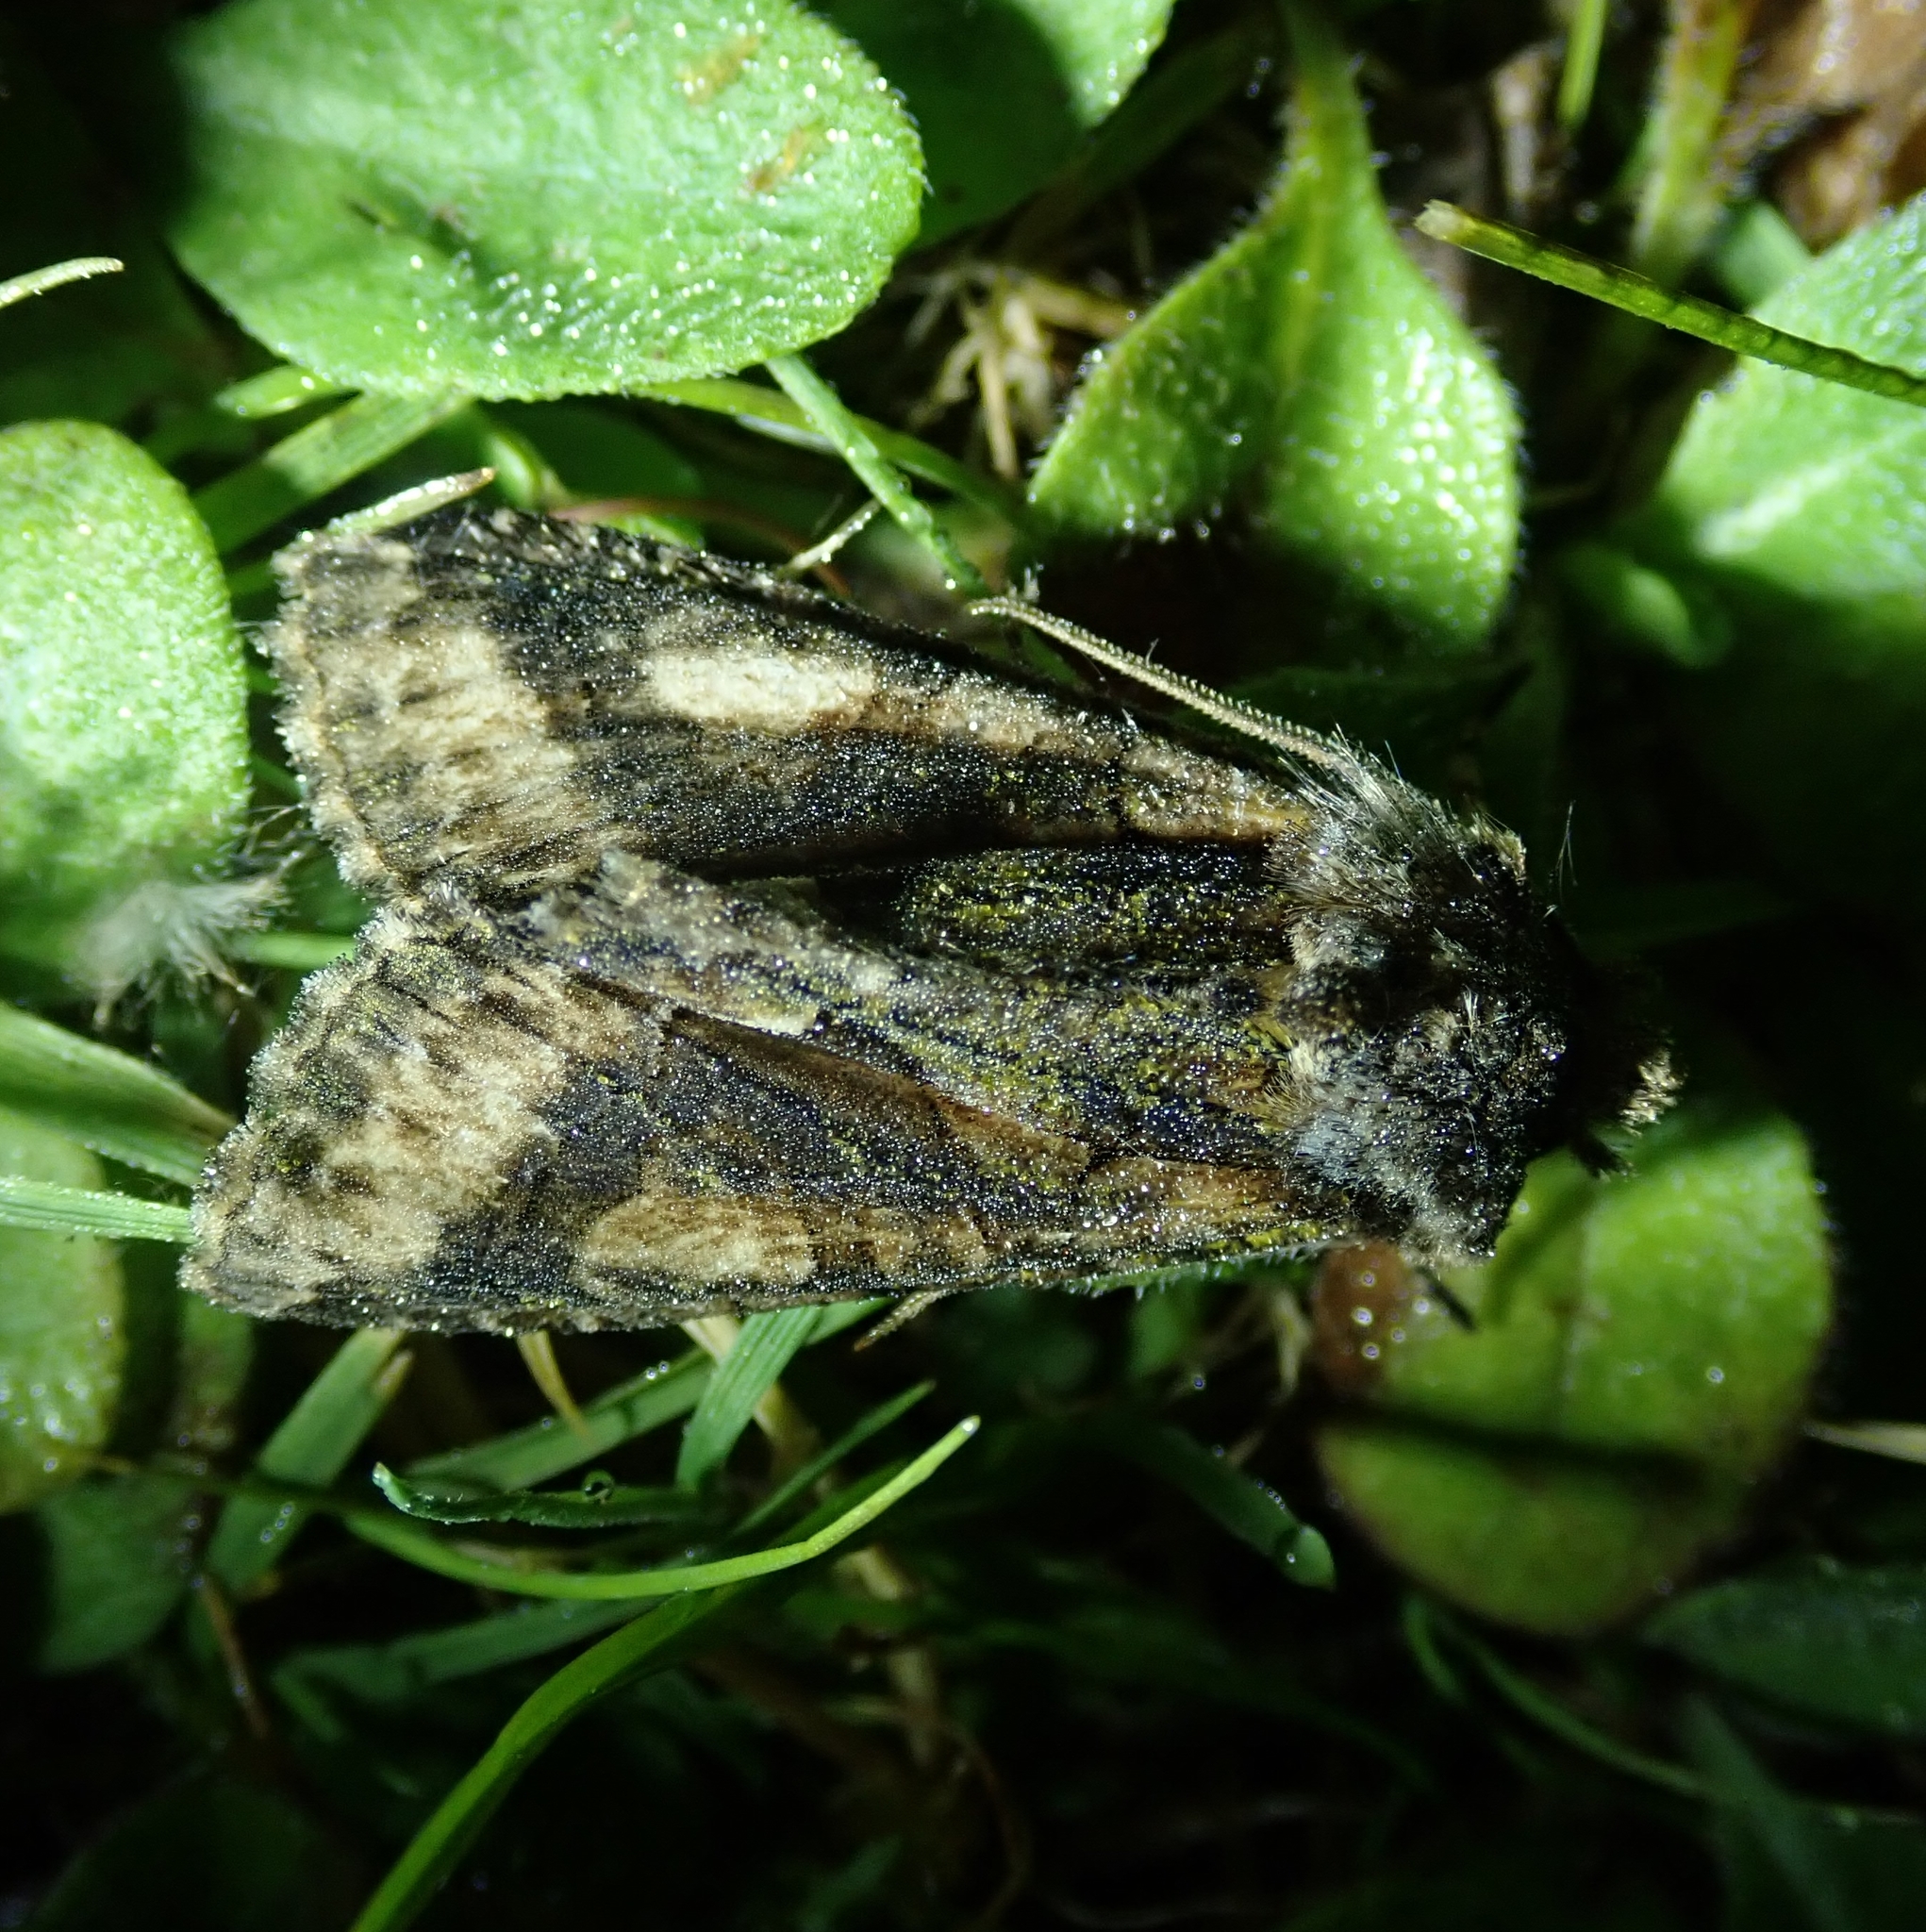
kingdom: Animalia
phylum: Arthropoda
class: Insecta
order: Lepidoptera
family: Noctuidae
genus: Allophyes
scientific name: Allophyes oxyacanthae
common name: Green-brindled crescent
